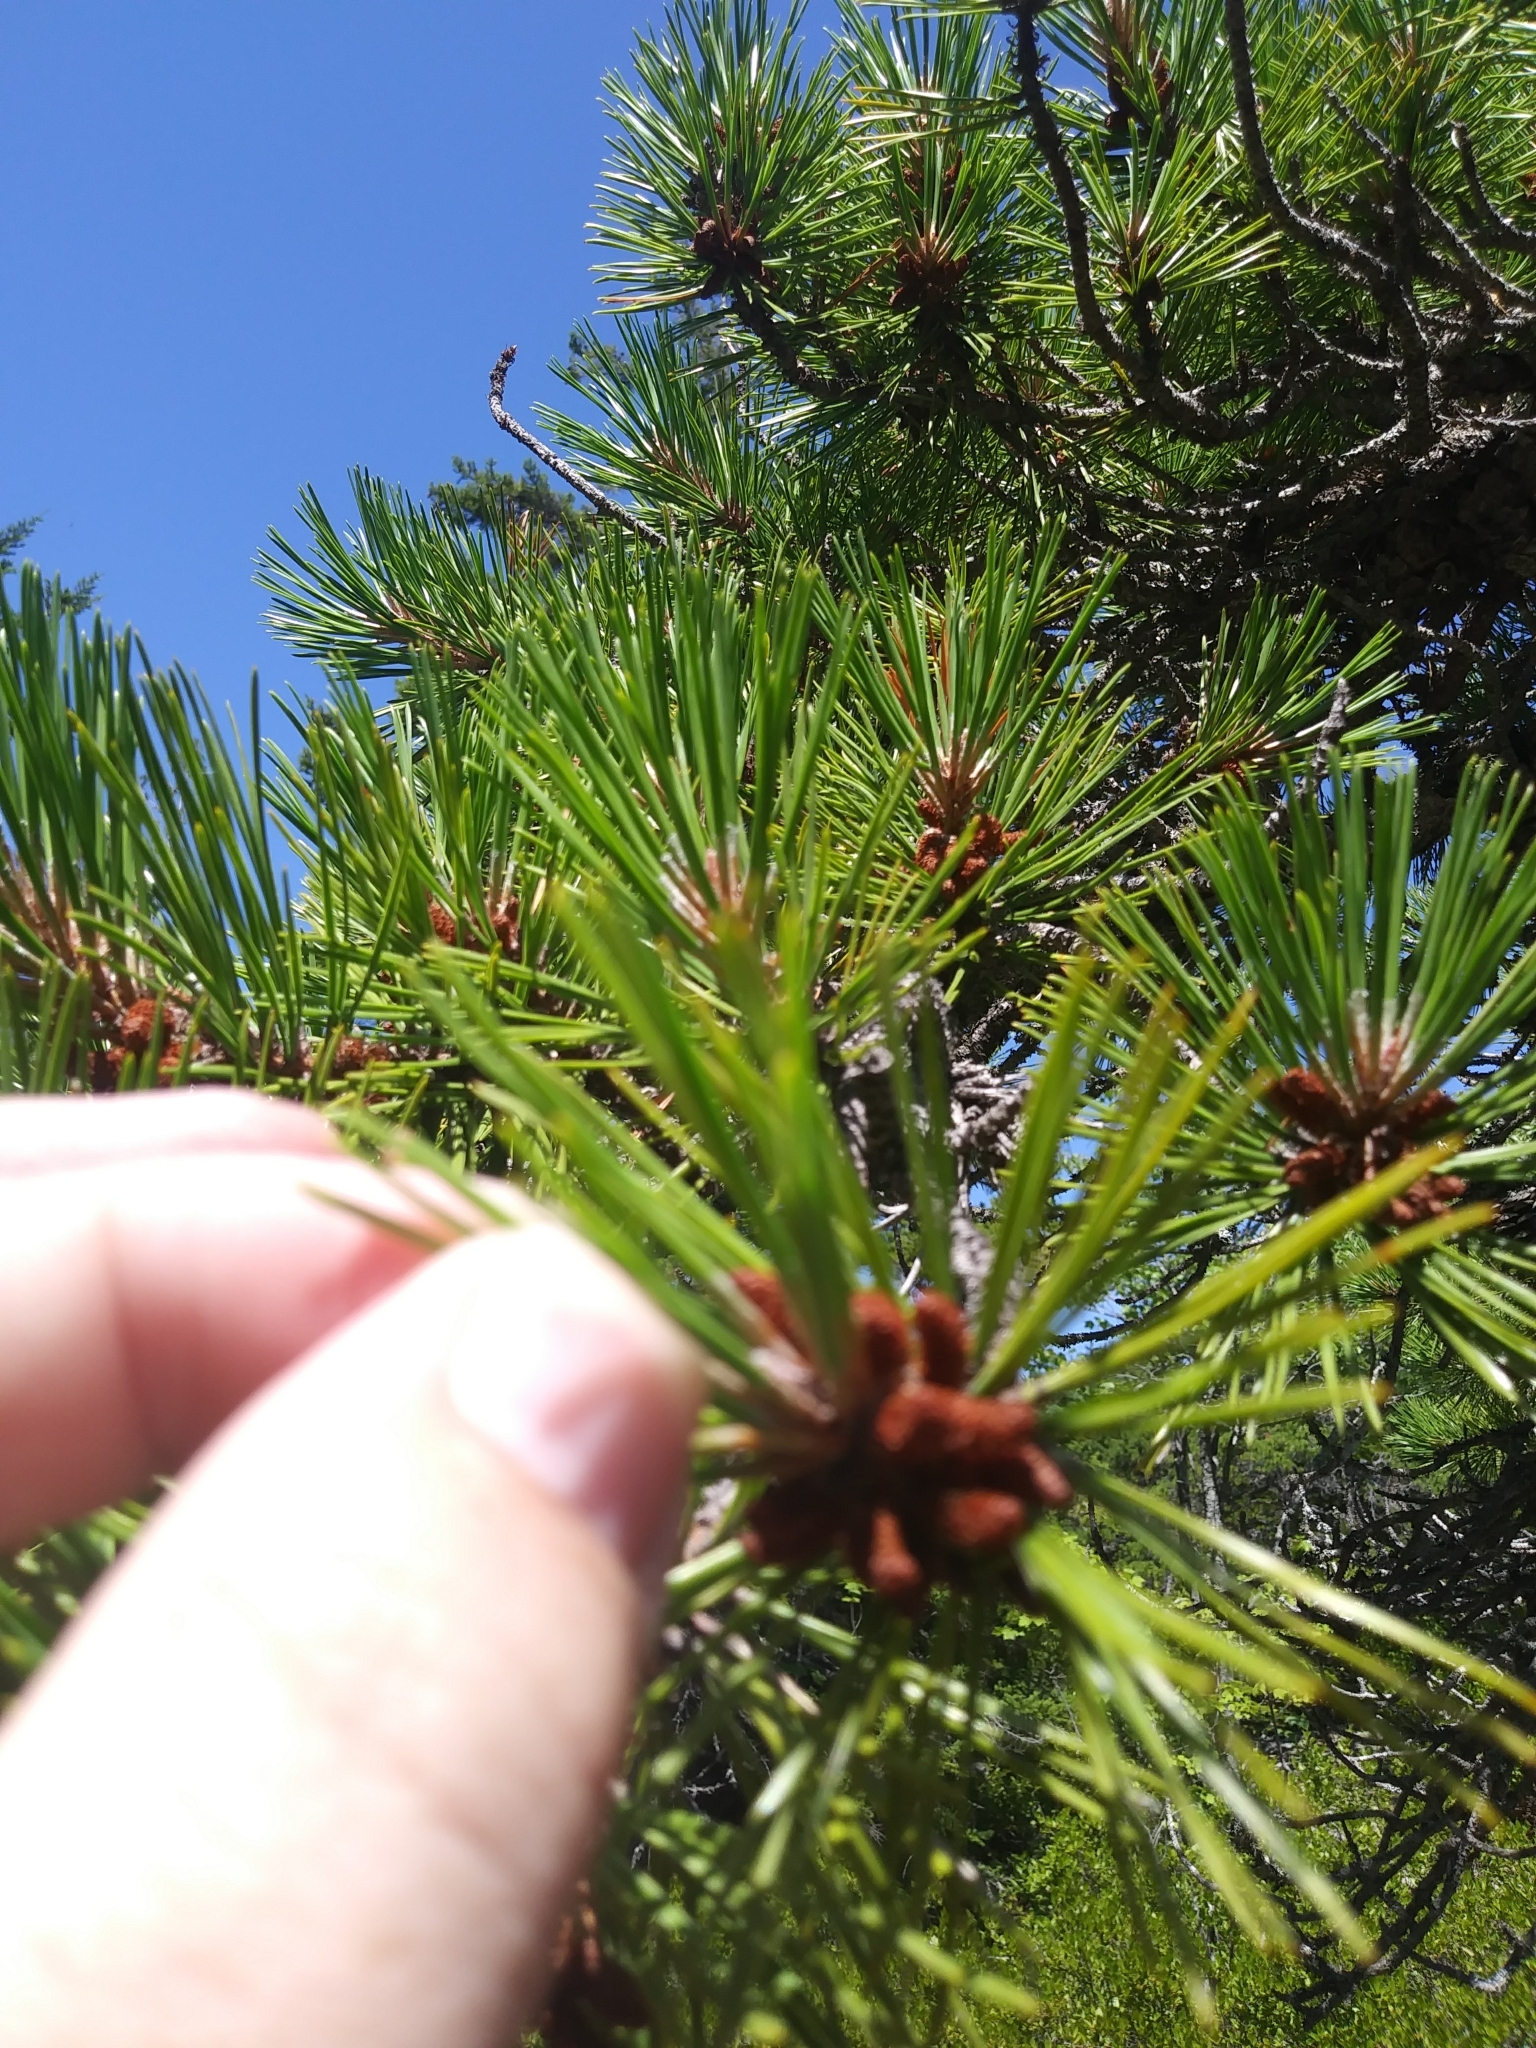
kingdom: Plantae
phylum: Tracheophyta
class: Pinopsida
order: Pinales
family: Pinaceae
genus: Pinus
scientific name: Pinus rigida
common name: Pitch pine
